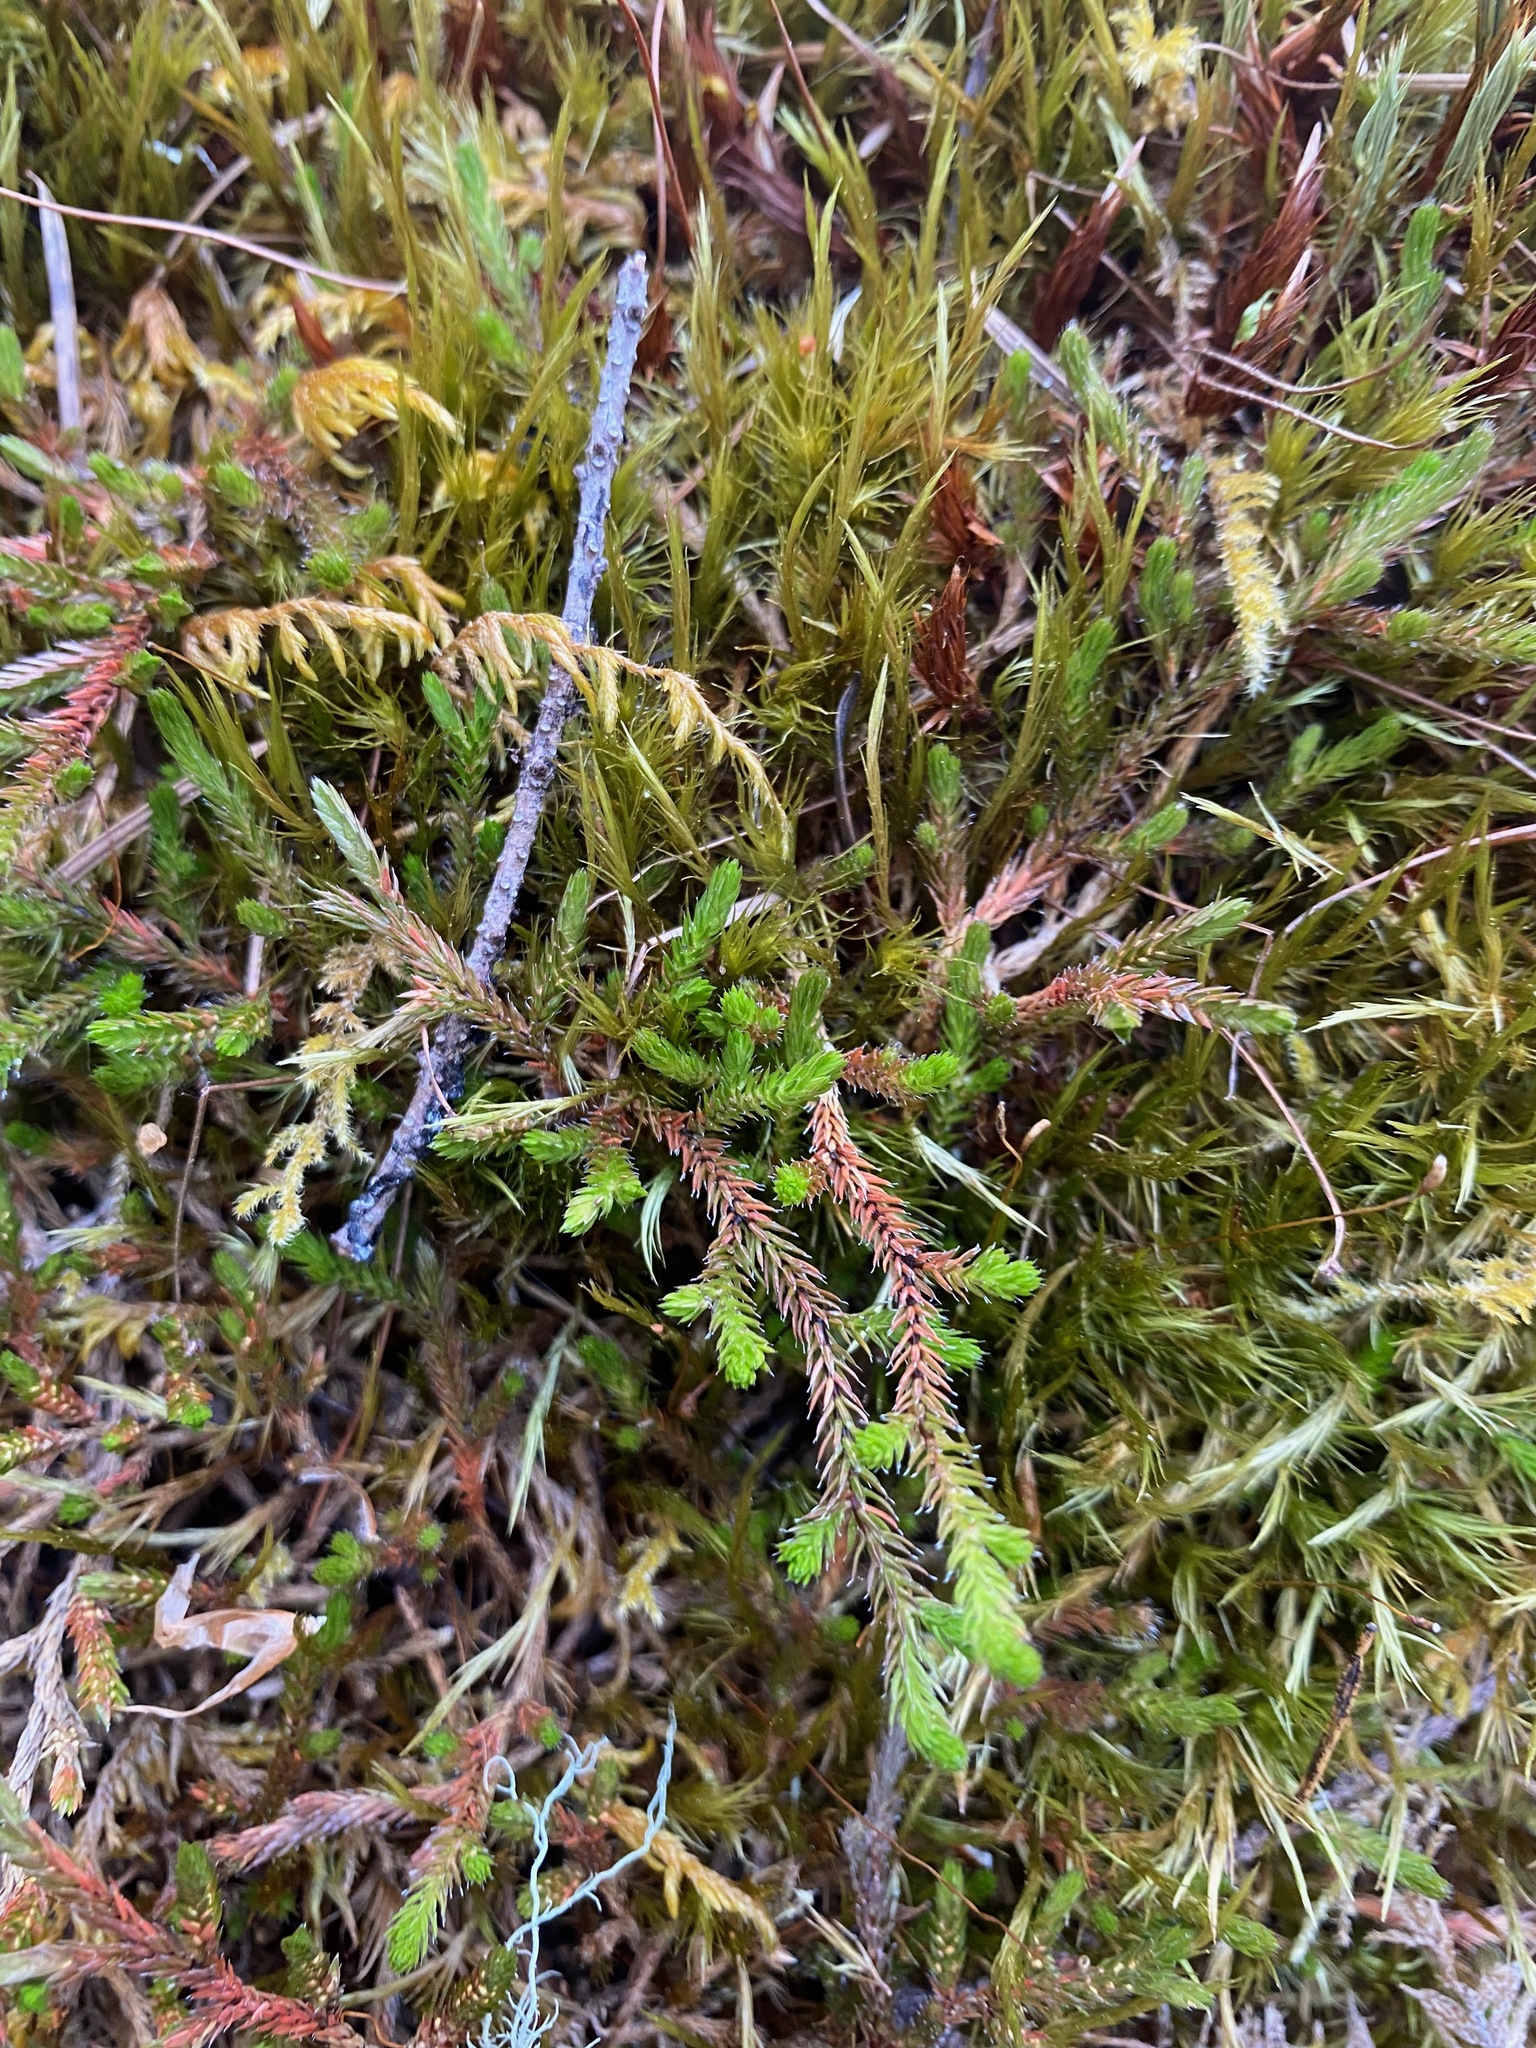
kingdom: Plantae
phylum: Tracheophyta
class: Lycopodiopsida
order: Selaginellales
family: Selaginellaceae
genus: Selaginella
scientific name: Selaginella wallacei
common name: Wallace's selaginella
